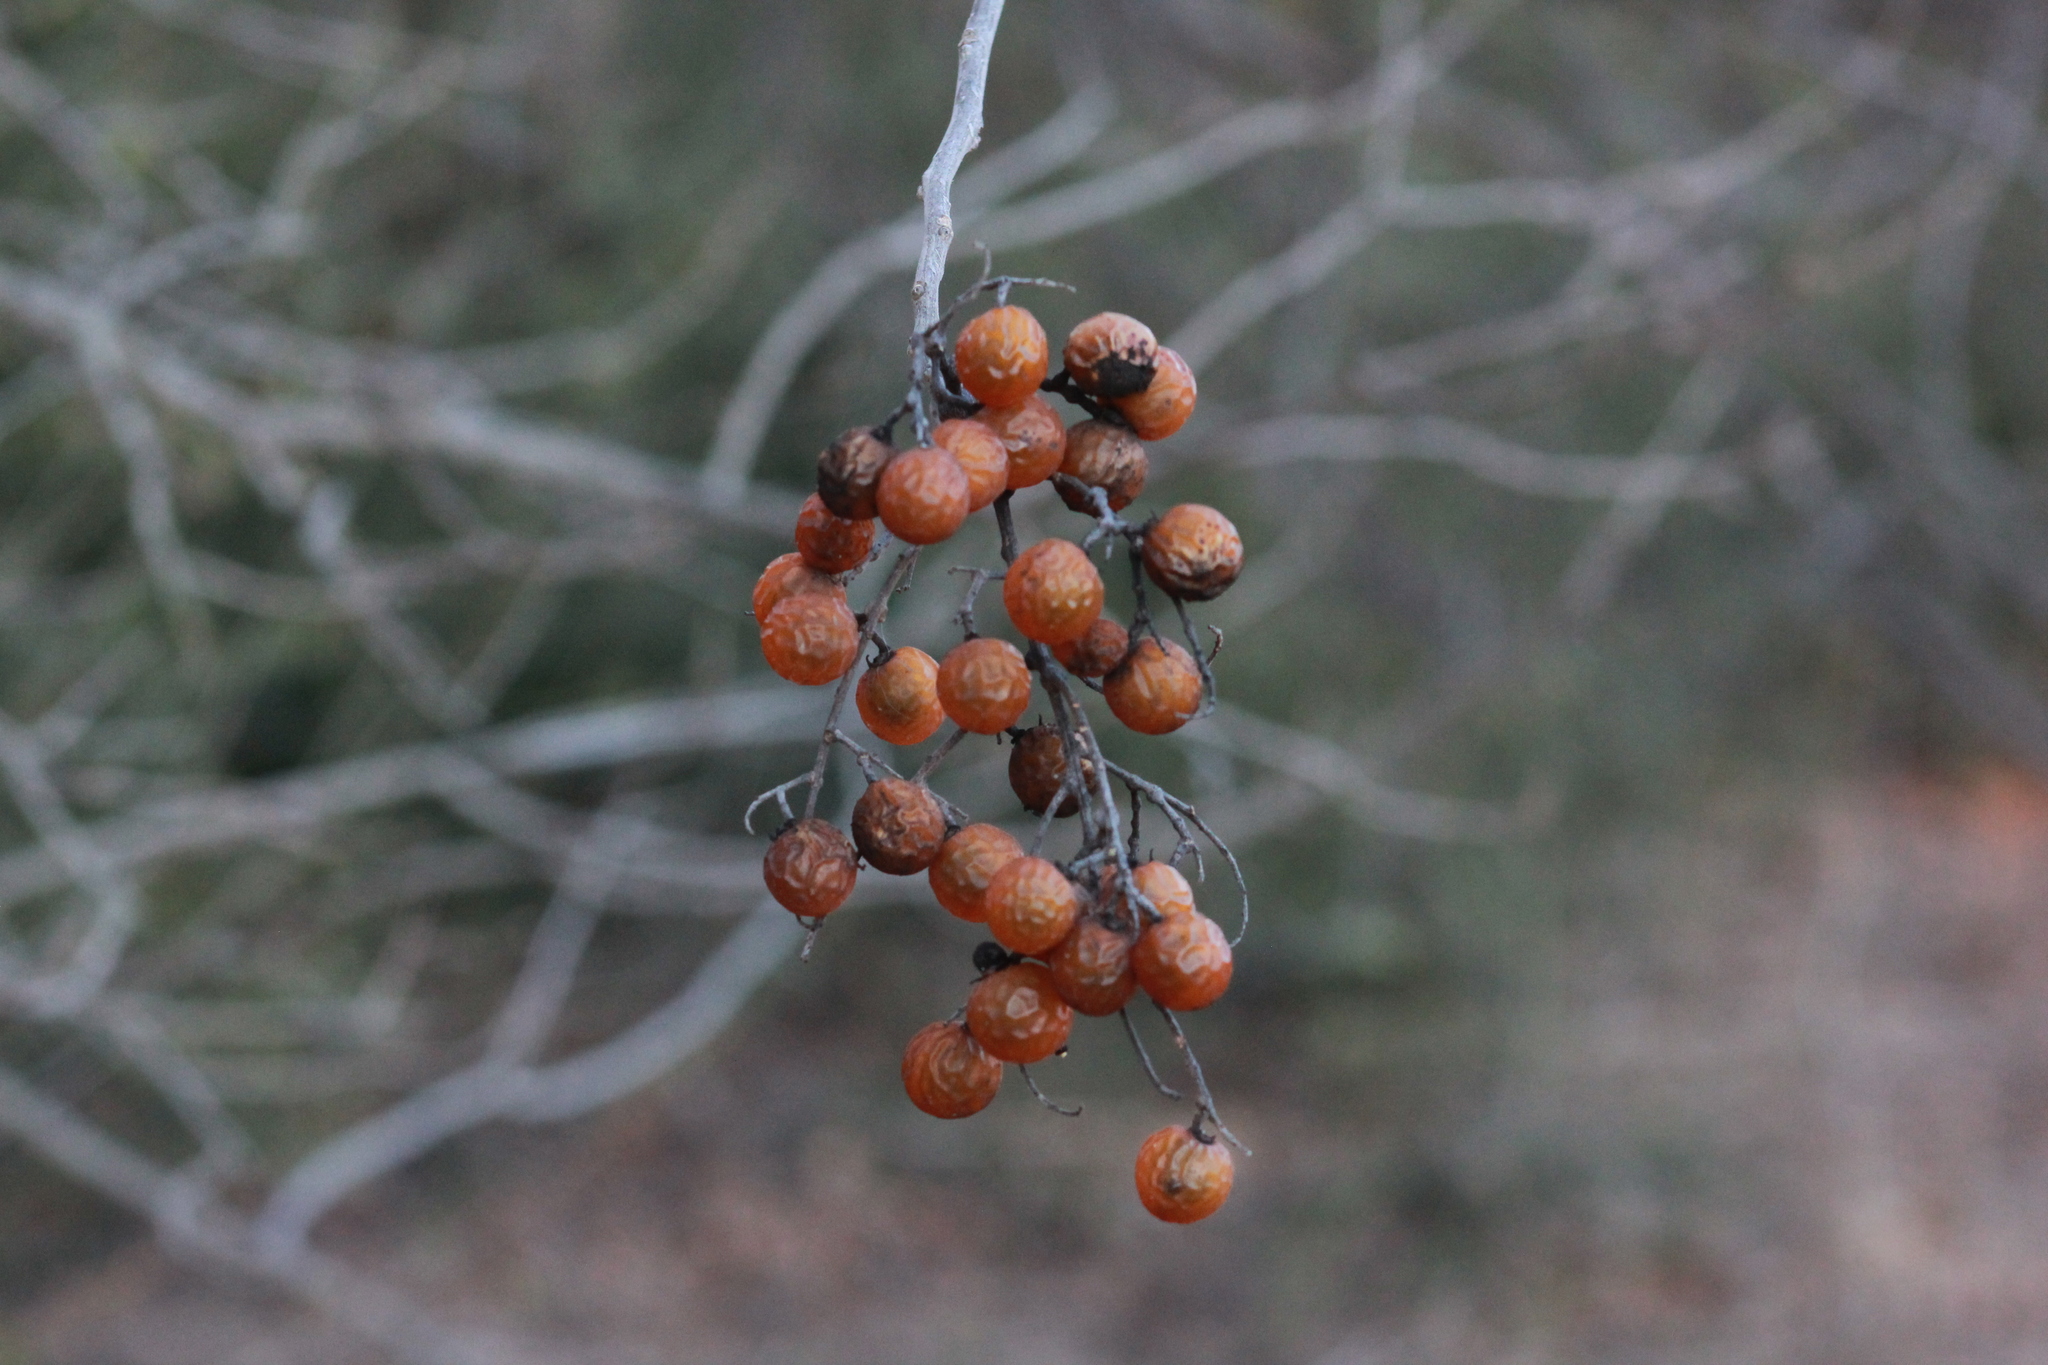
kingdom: Plantae
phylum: Tracheophyta
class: Magnoliopsida
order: Sapindales
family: Sapindaceae
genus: Sapindus
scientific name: Sapindus drummondii
